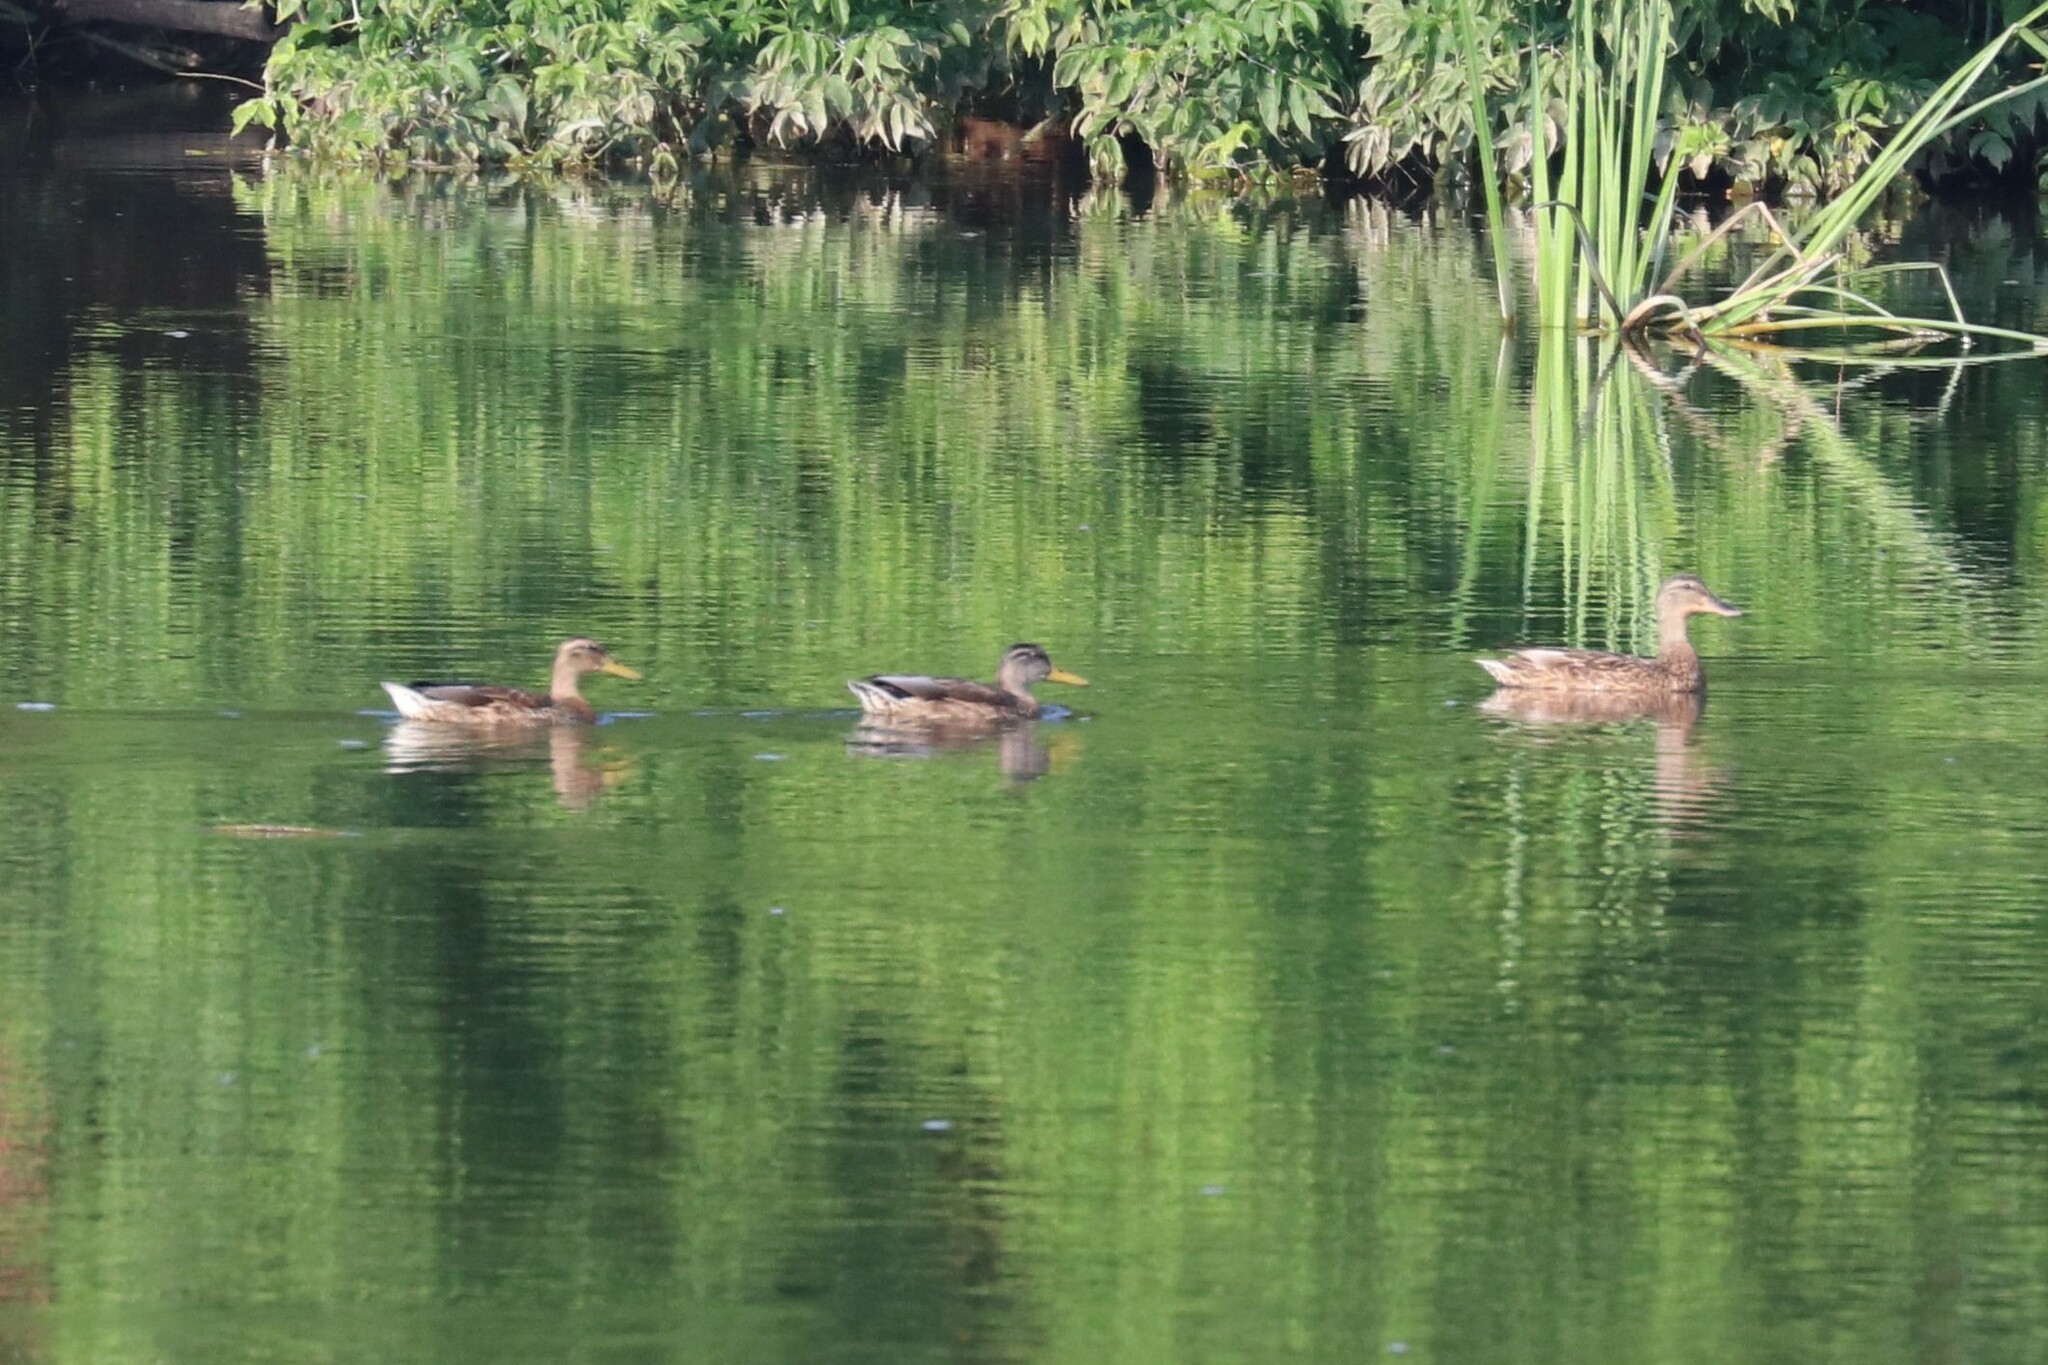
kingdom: Animalia
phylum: Chordata
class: Aves
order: Anseriformes
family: Anatidae
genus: Anas
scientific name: Anas platyrhynchos
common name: Mallard
